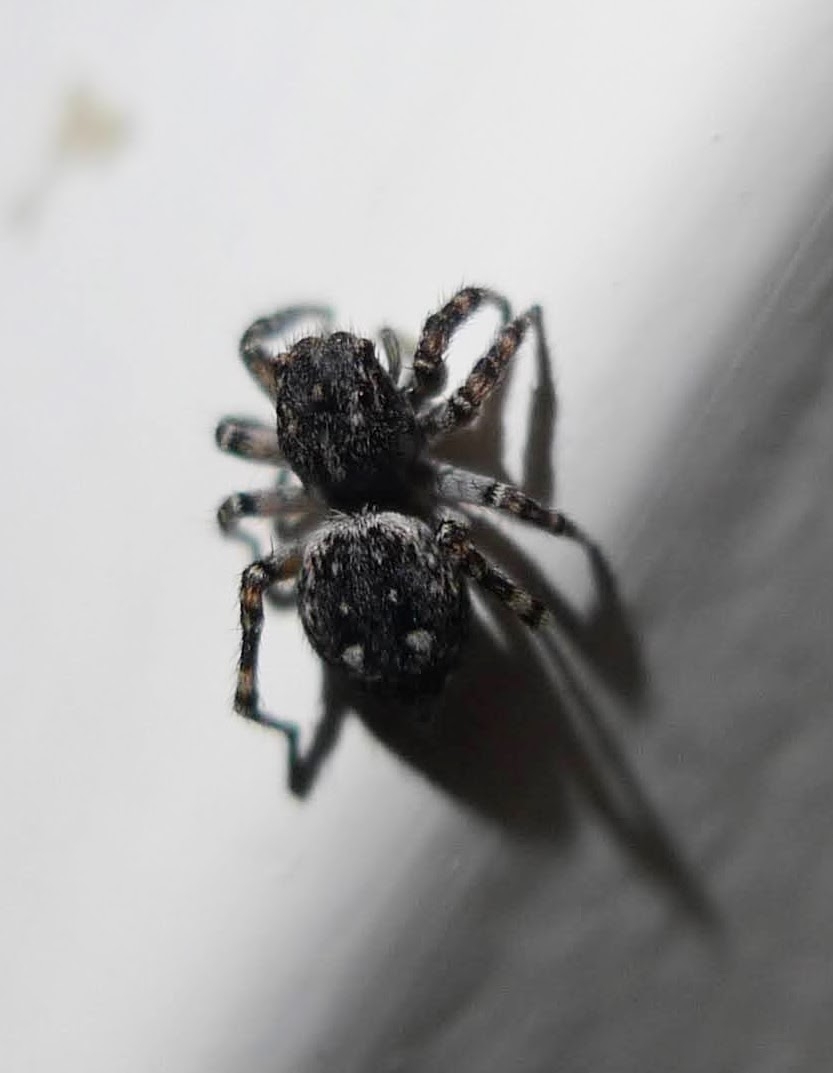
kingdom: Animalia
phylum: Arthropoda
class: Arachnida
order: Araneae
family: Salticidae
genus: Attulus
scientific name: Attulus pubescens
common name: Jumping spider
